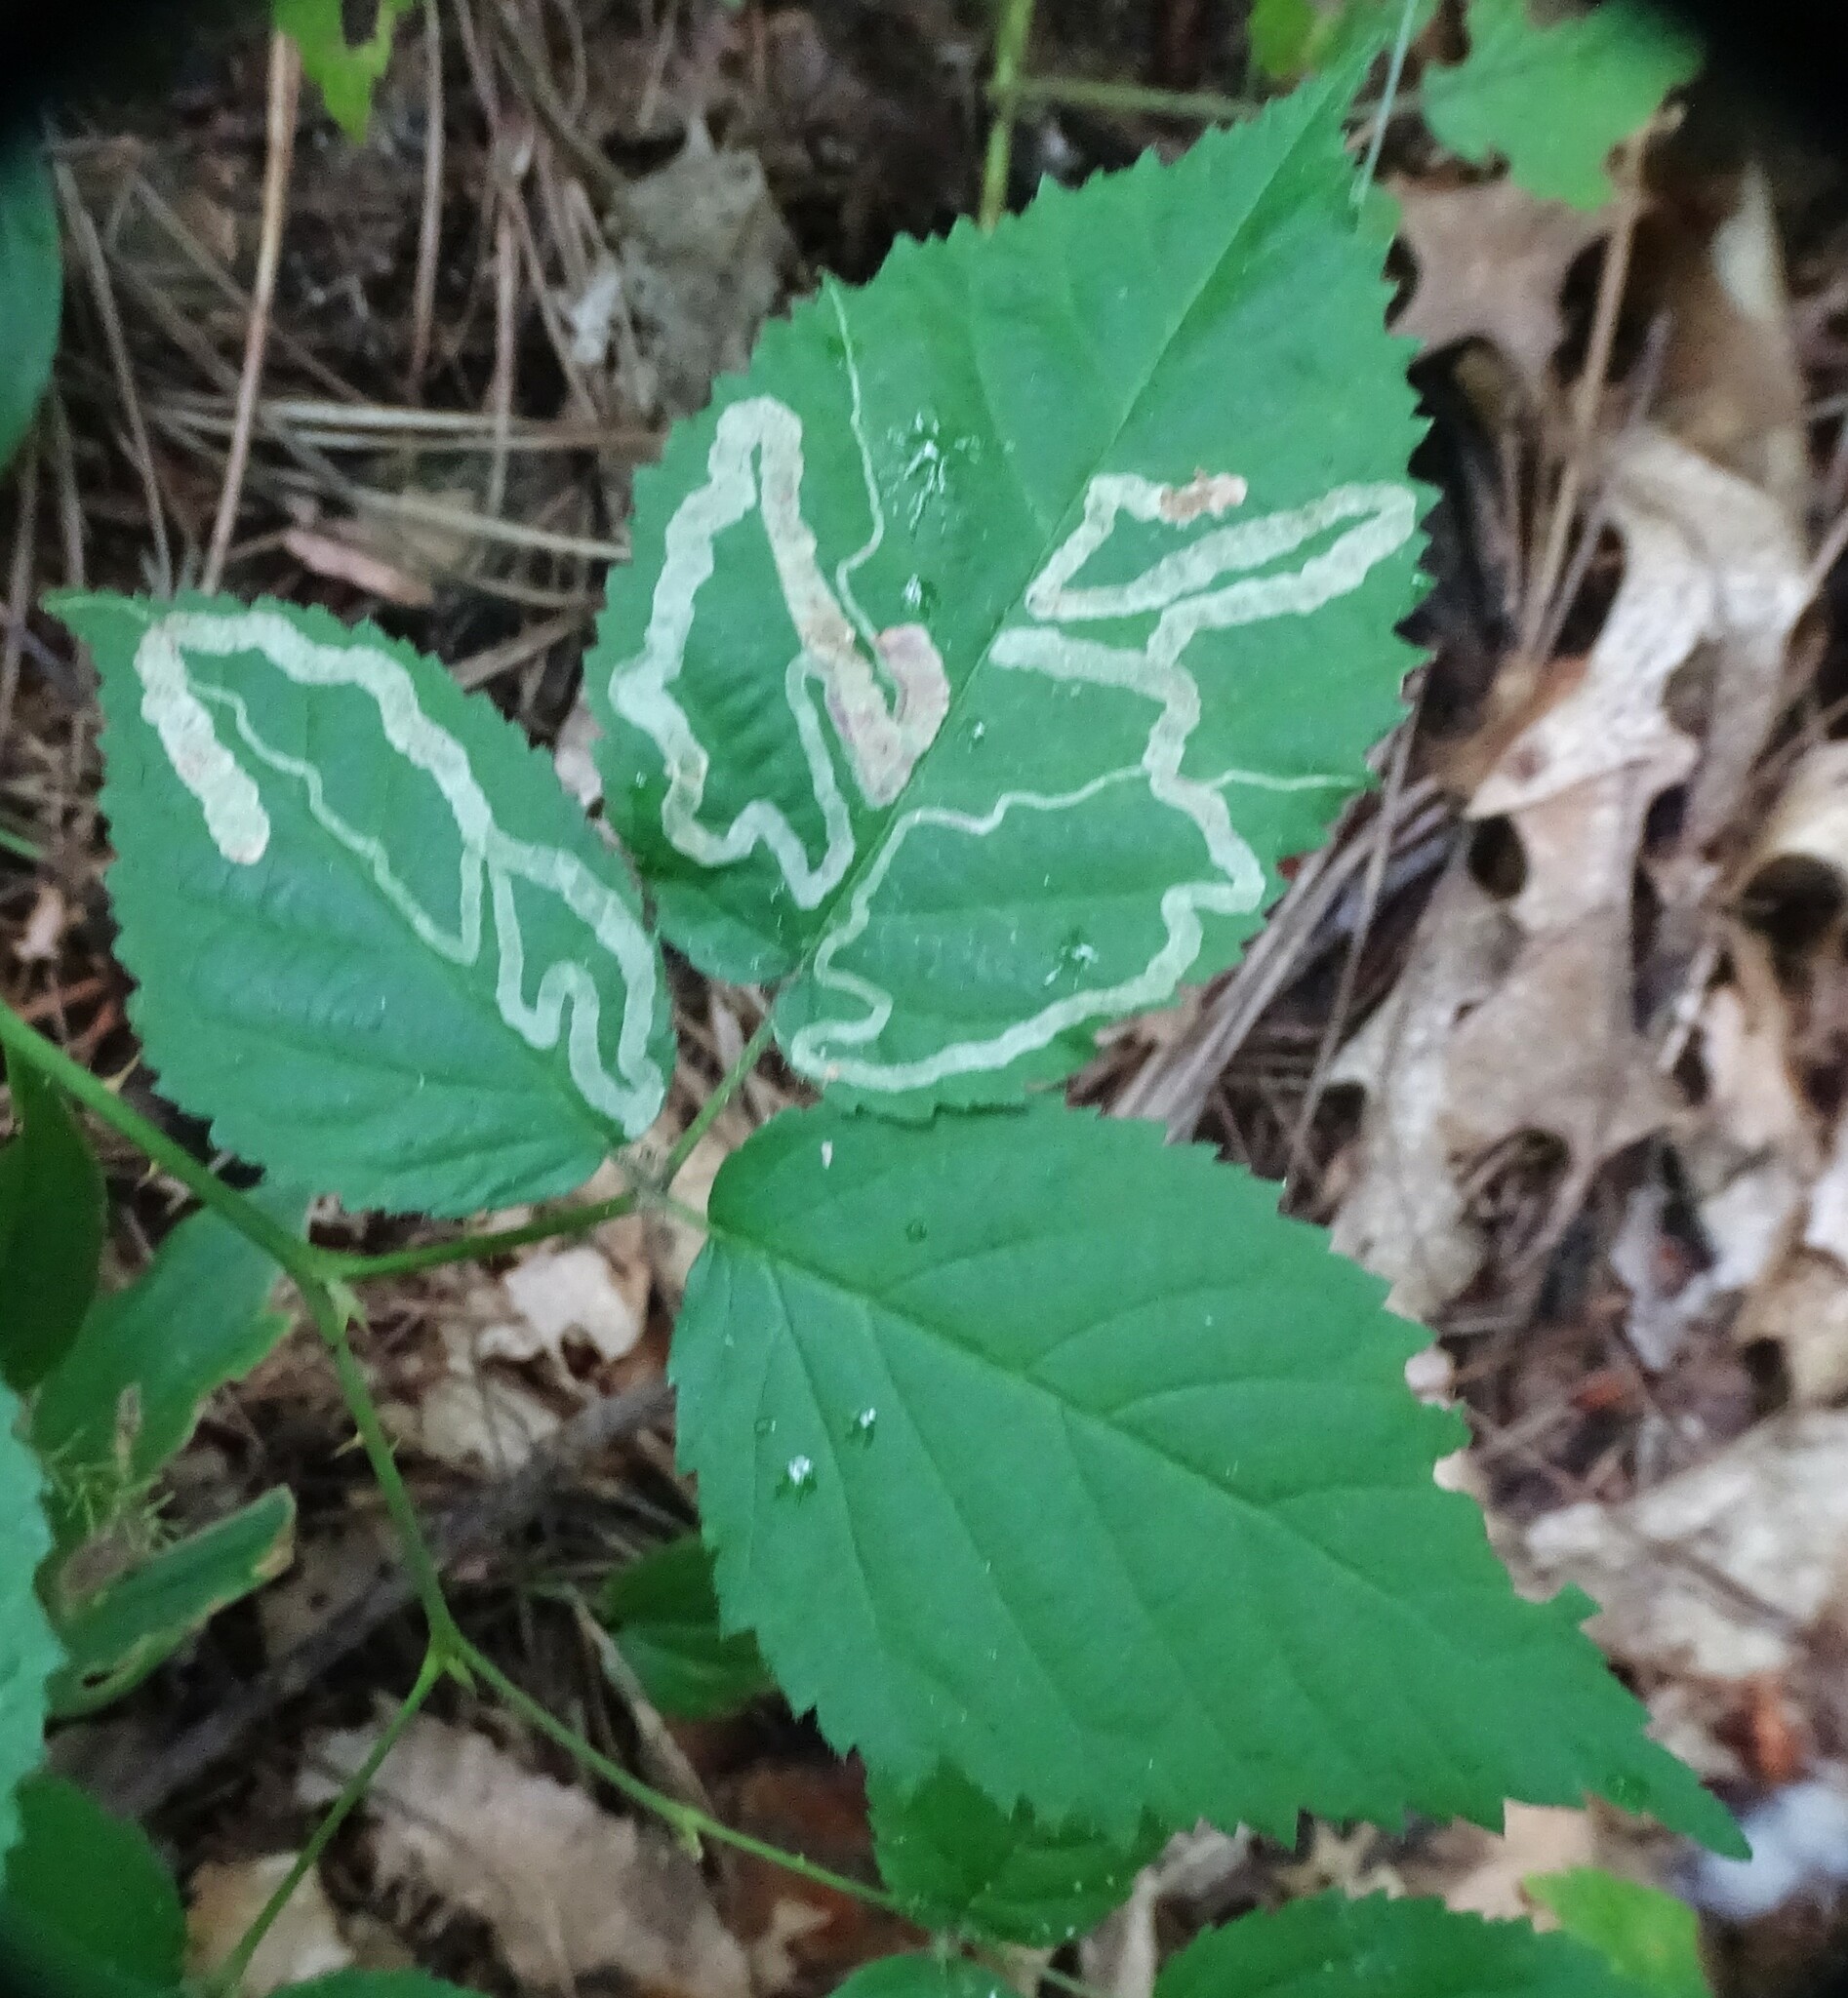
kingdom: Animalia
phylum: Arthropoda
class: Insecta
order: Diptera
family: Agromyzidae
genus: Agromyza
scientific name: Agromyza vockerothi
